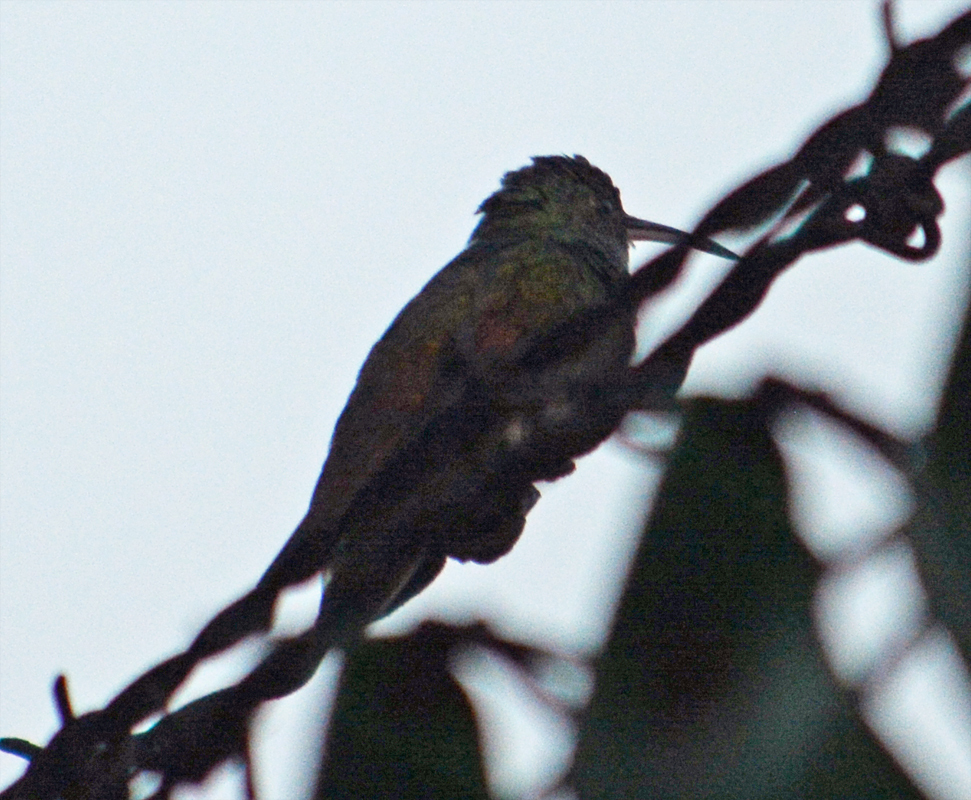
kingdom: Animalia
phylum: Chordata
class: Aves
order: Apodiformes
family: Trochilidae
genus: Saucerottia
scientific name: Saucerottia beryllina
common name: Berylline hummingbird
